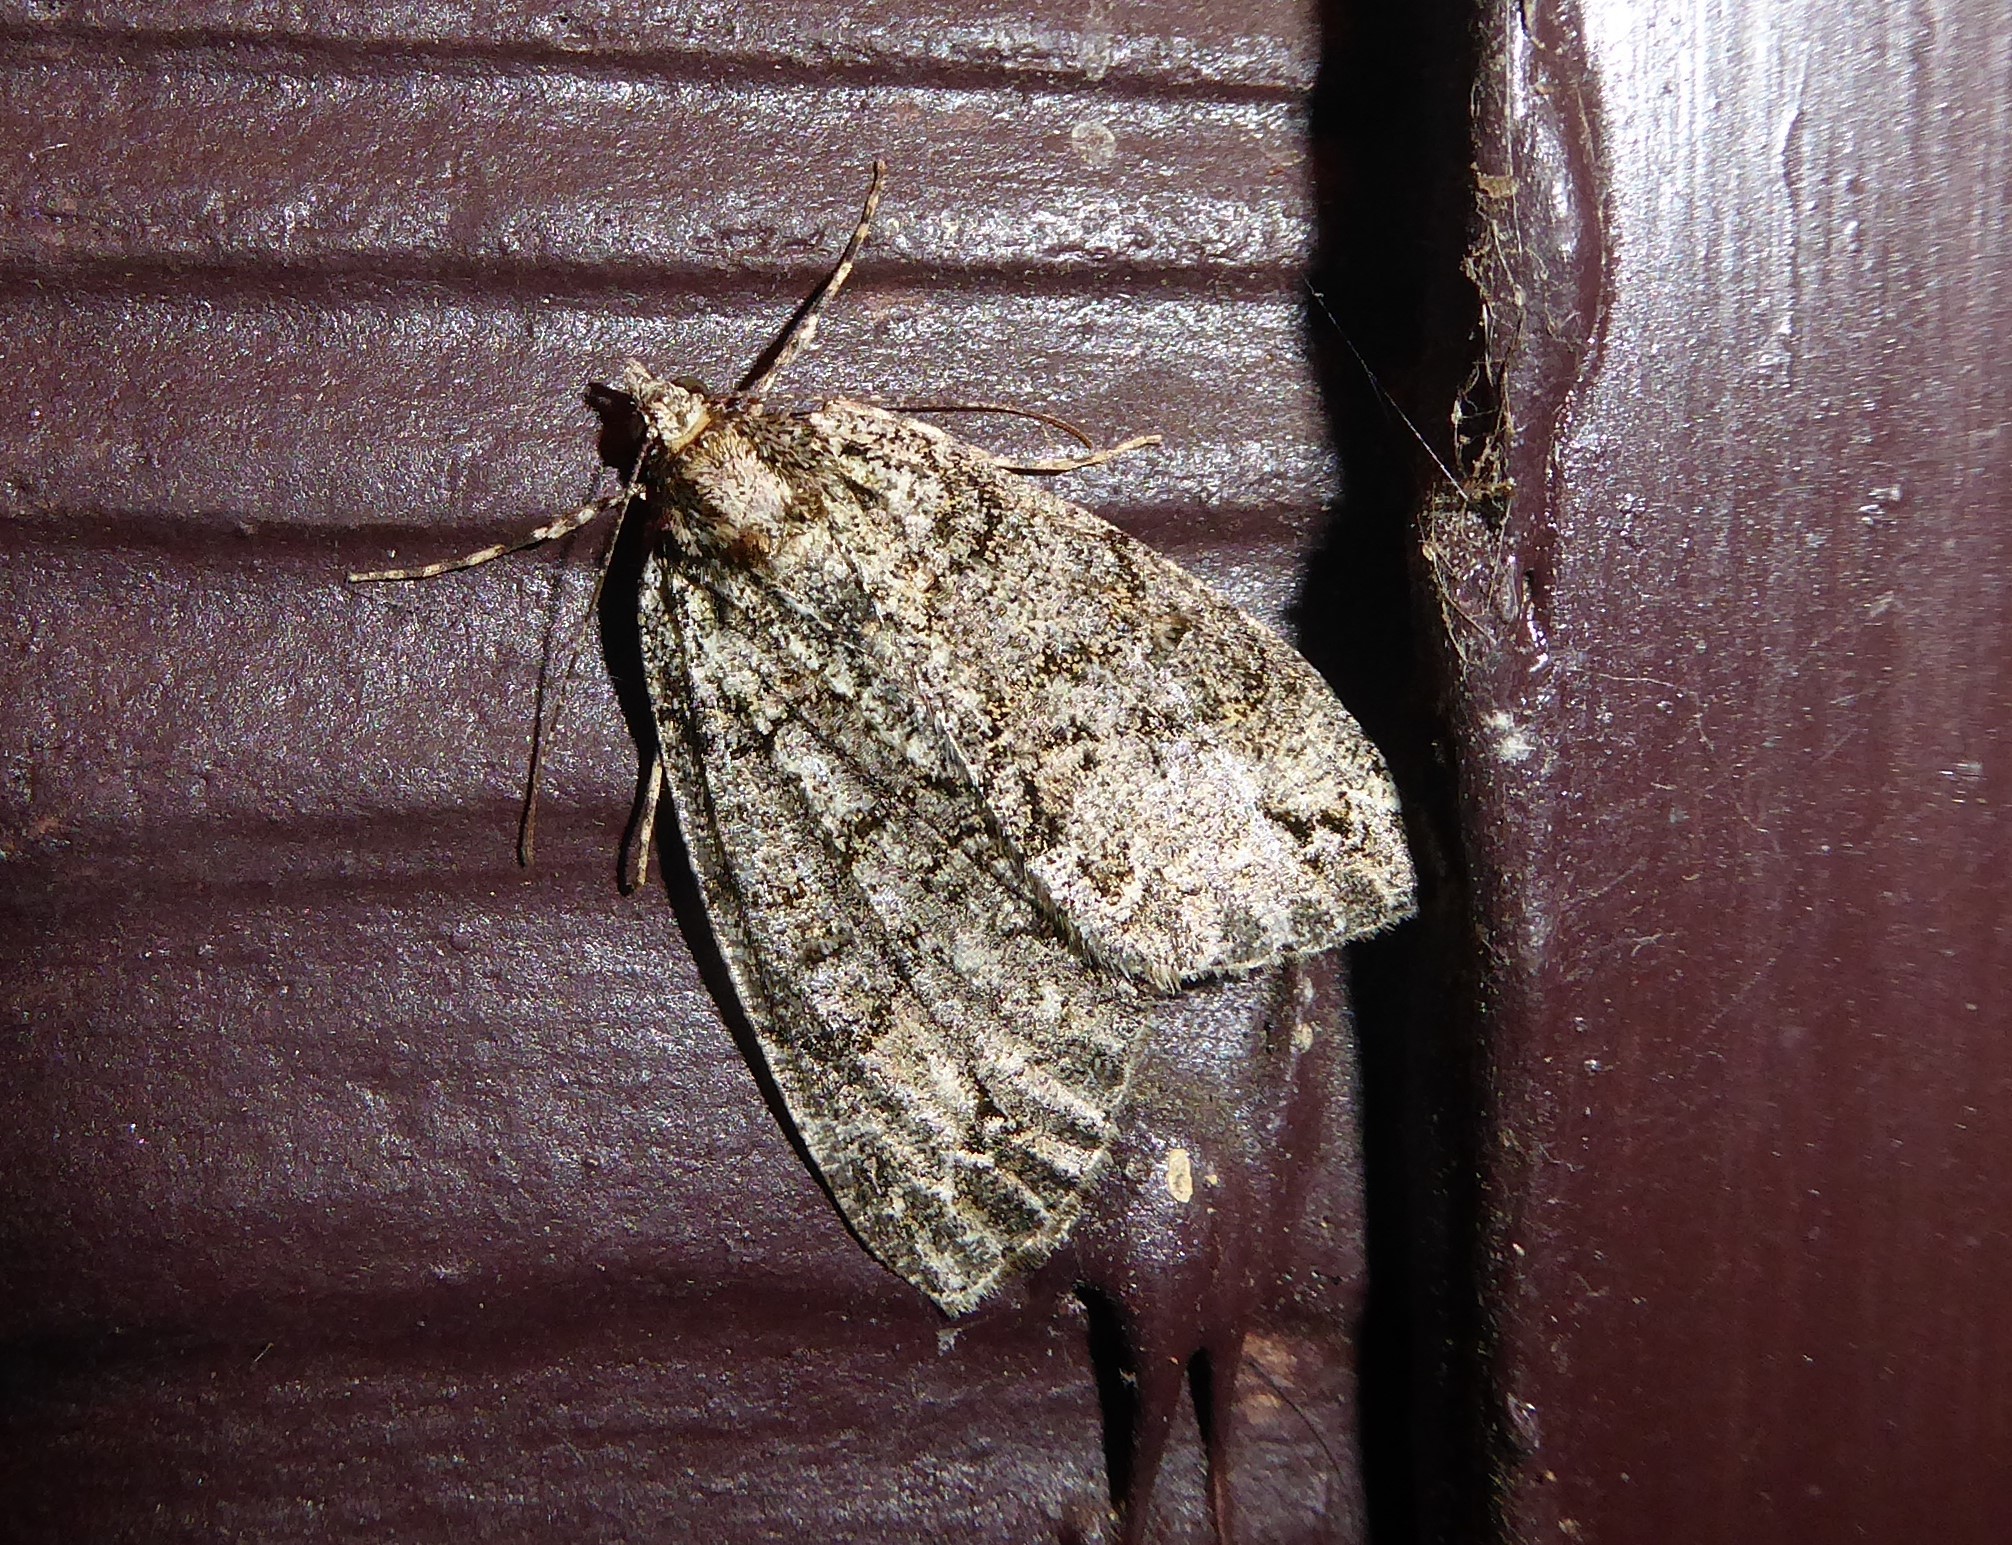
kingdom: Animalia
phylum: Arthropoda
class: Insecta
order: Lepidoptera
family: Geometridae
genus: Pseudocoremia
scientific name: Pseudocoremia suavis
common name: Common forest looper
